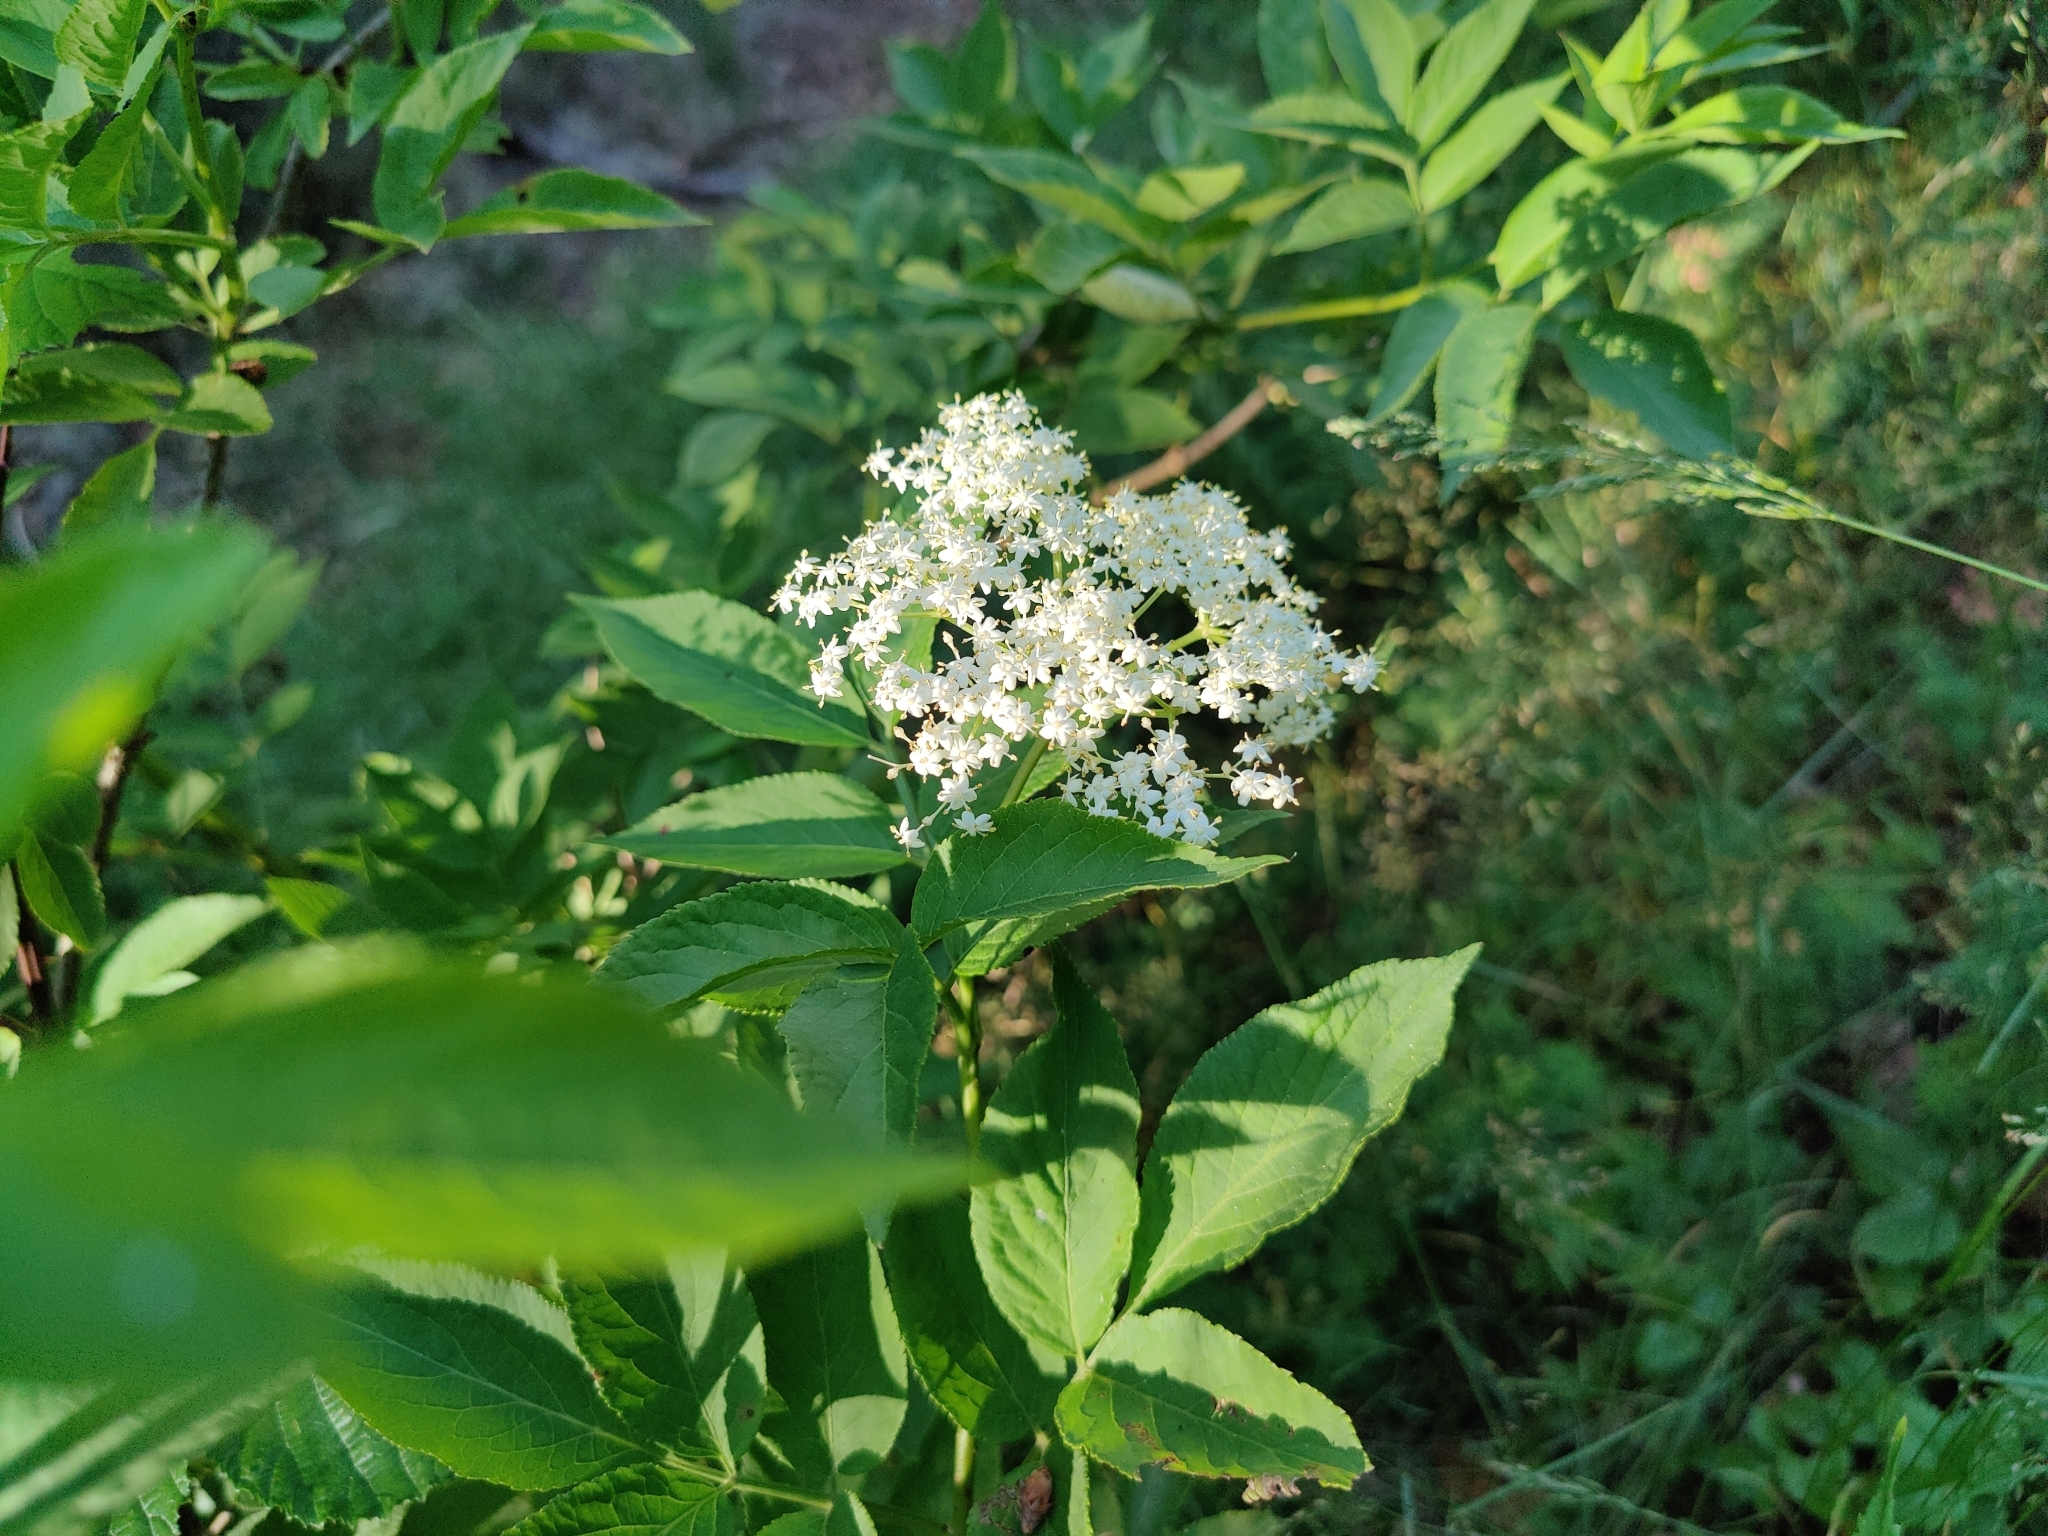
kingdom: Plantae
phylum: Tracheophyta
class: Magnoliopsida
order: Dipsacales
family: Viburnaceae
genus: Sambucus
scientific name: Sambucus nigra
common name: Elder
